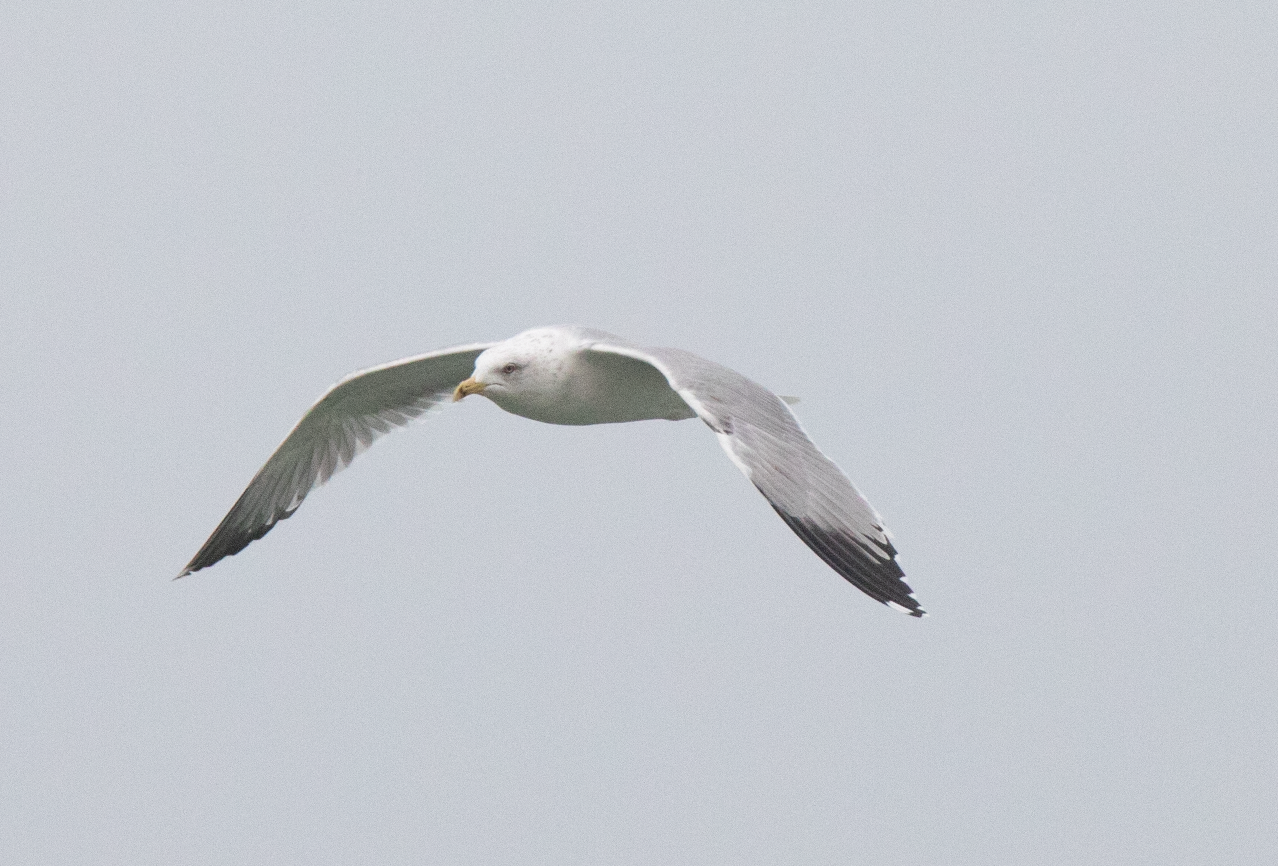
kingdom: Animalia
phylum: Chordata
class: Aves
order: Charadriiformes
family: Laridae
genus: Larus
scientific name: Larus michahellis
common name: Yellow-legged gull
